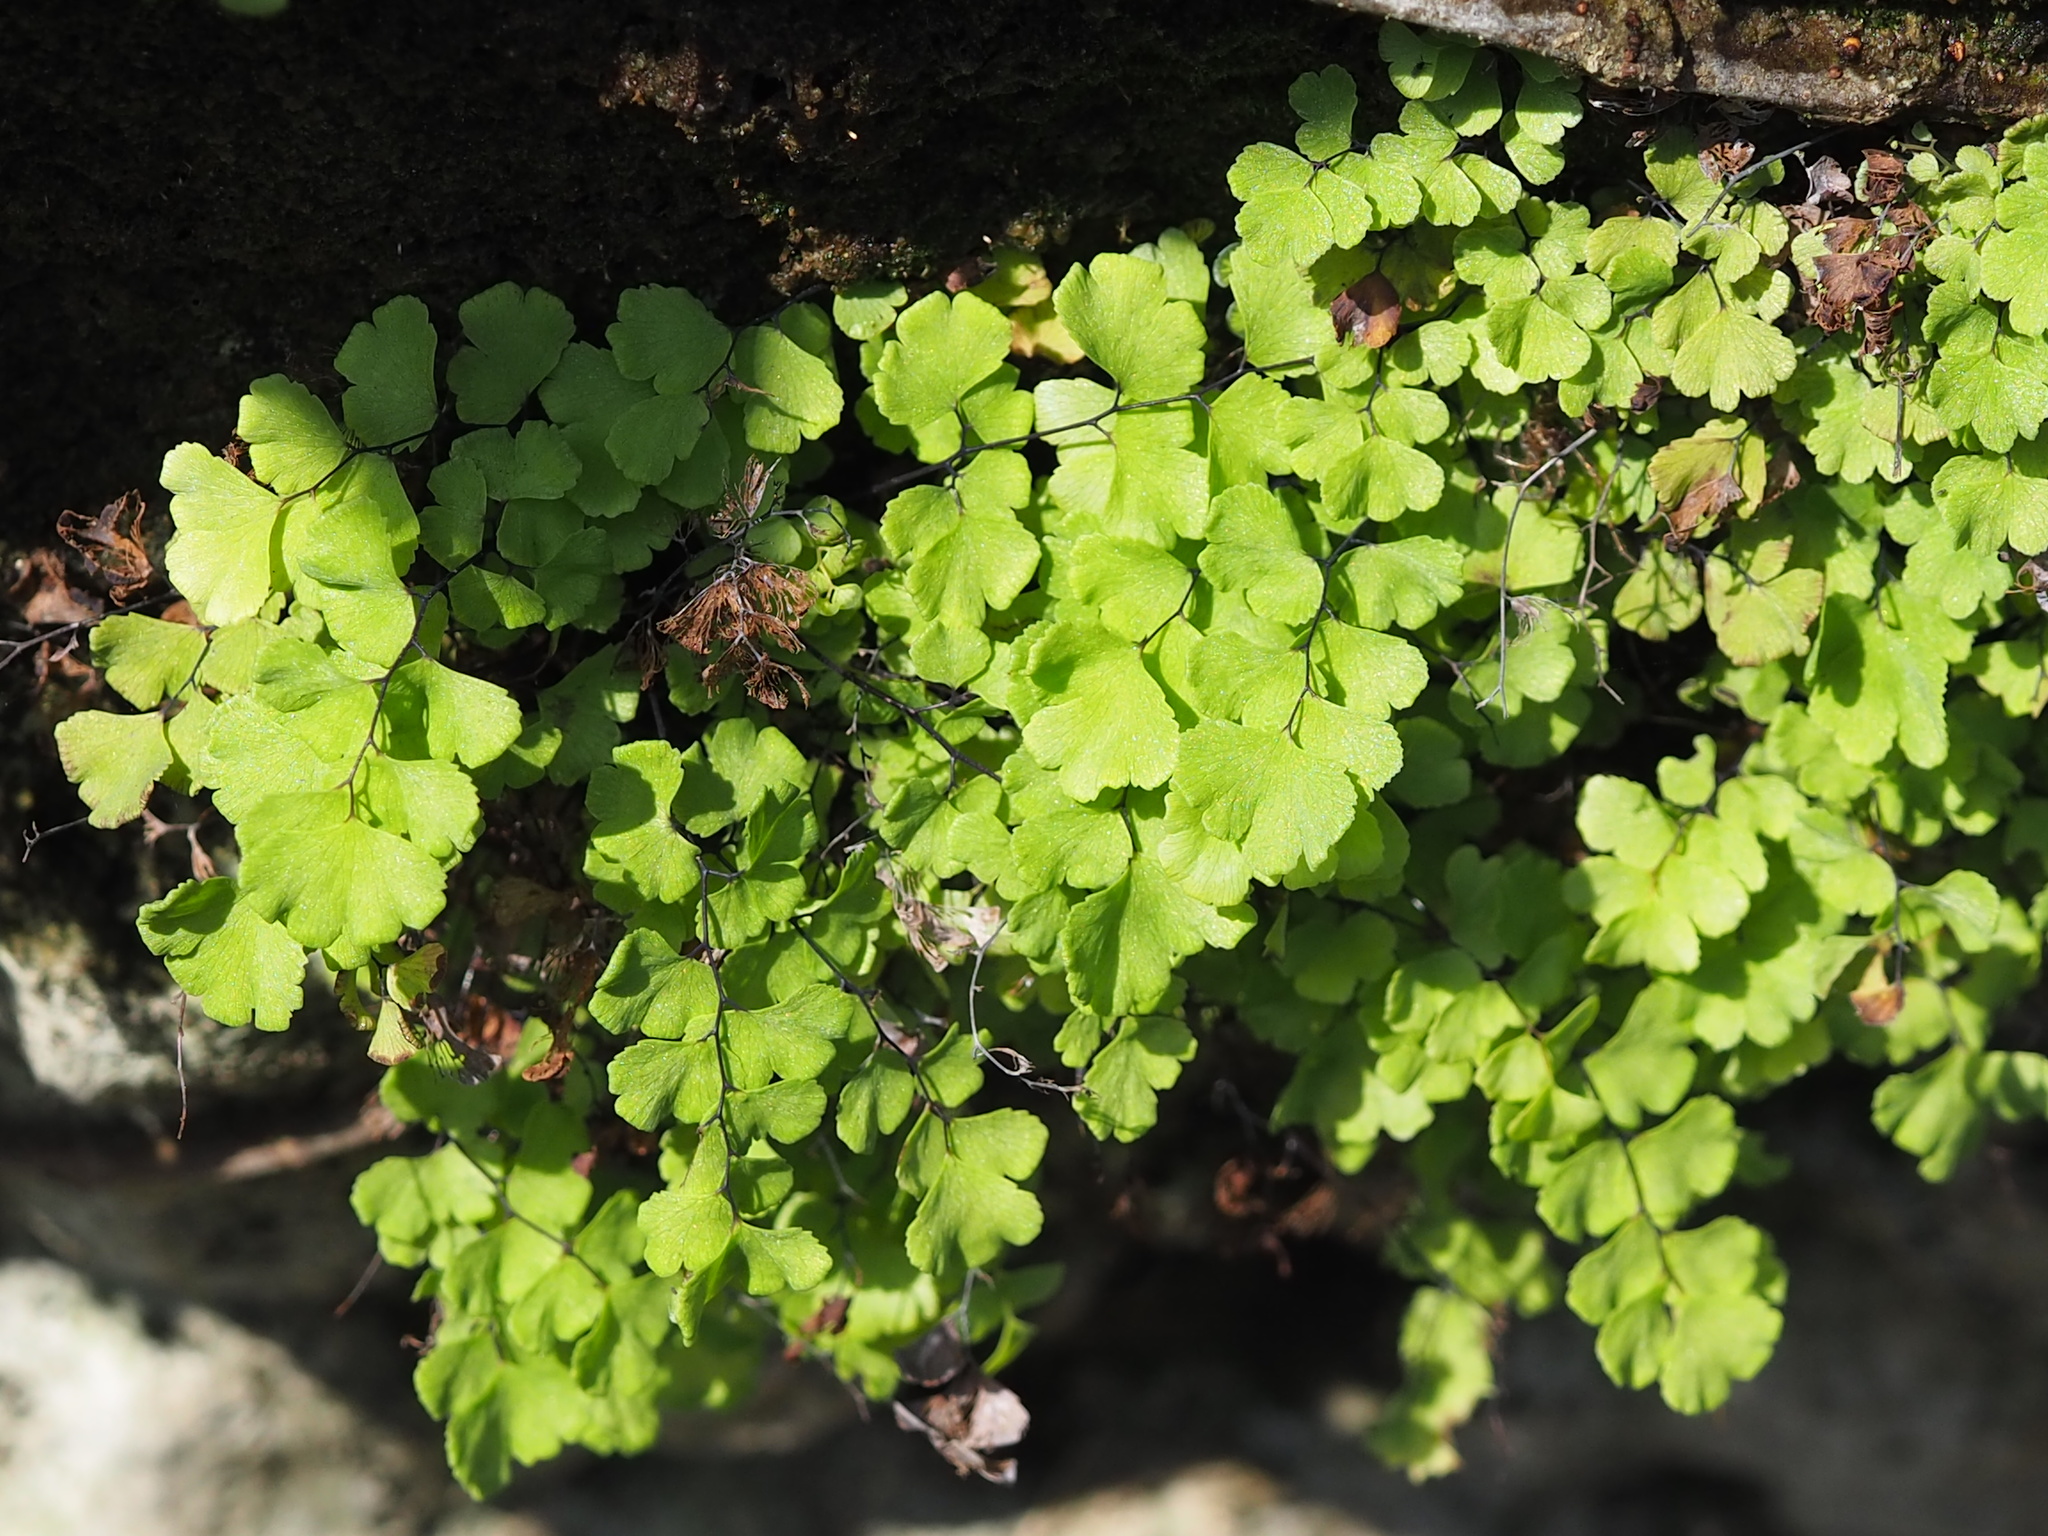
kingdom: Plantae
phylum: Tracheophyta
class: Polypodiopsida
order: Polypodiales
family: Pteridaceae
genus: Adiantum
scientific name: Adiantum capillus-veneris
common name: Maidenhair fern
